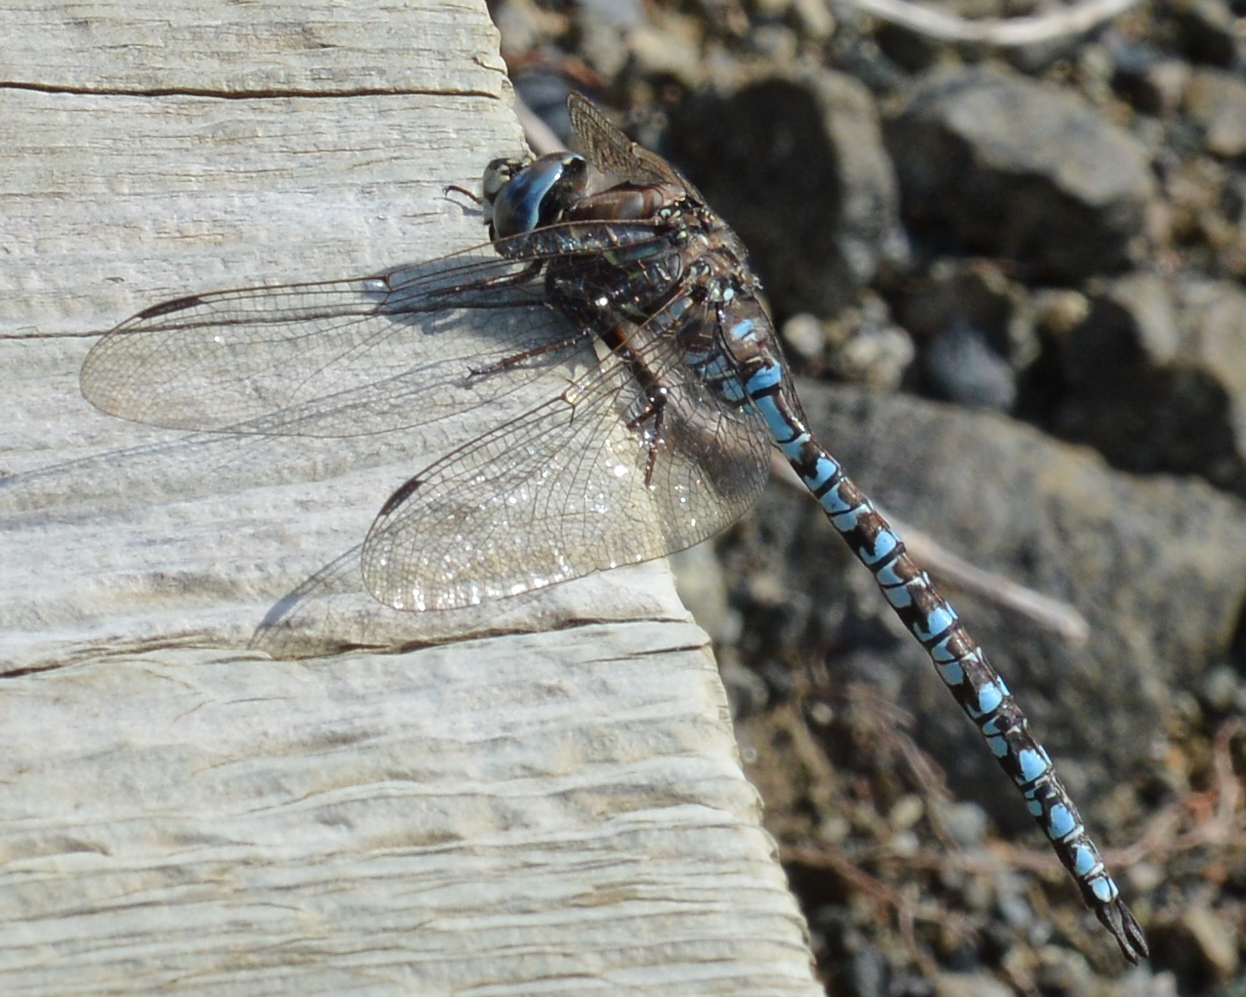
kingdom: Animalia
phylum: Arthropoda
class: Insecta
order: Odonata
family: Aeshnidae
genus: Aeshna
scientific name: Aeshna sitchensis
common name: Zigzag darner
